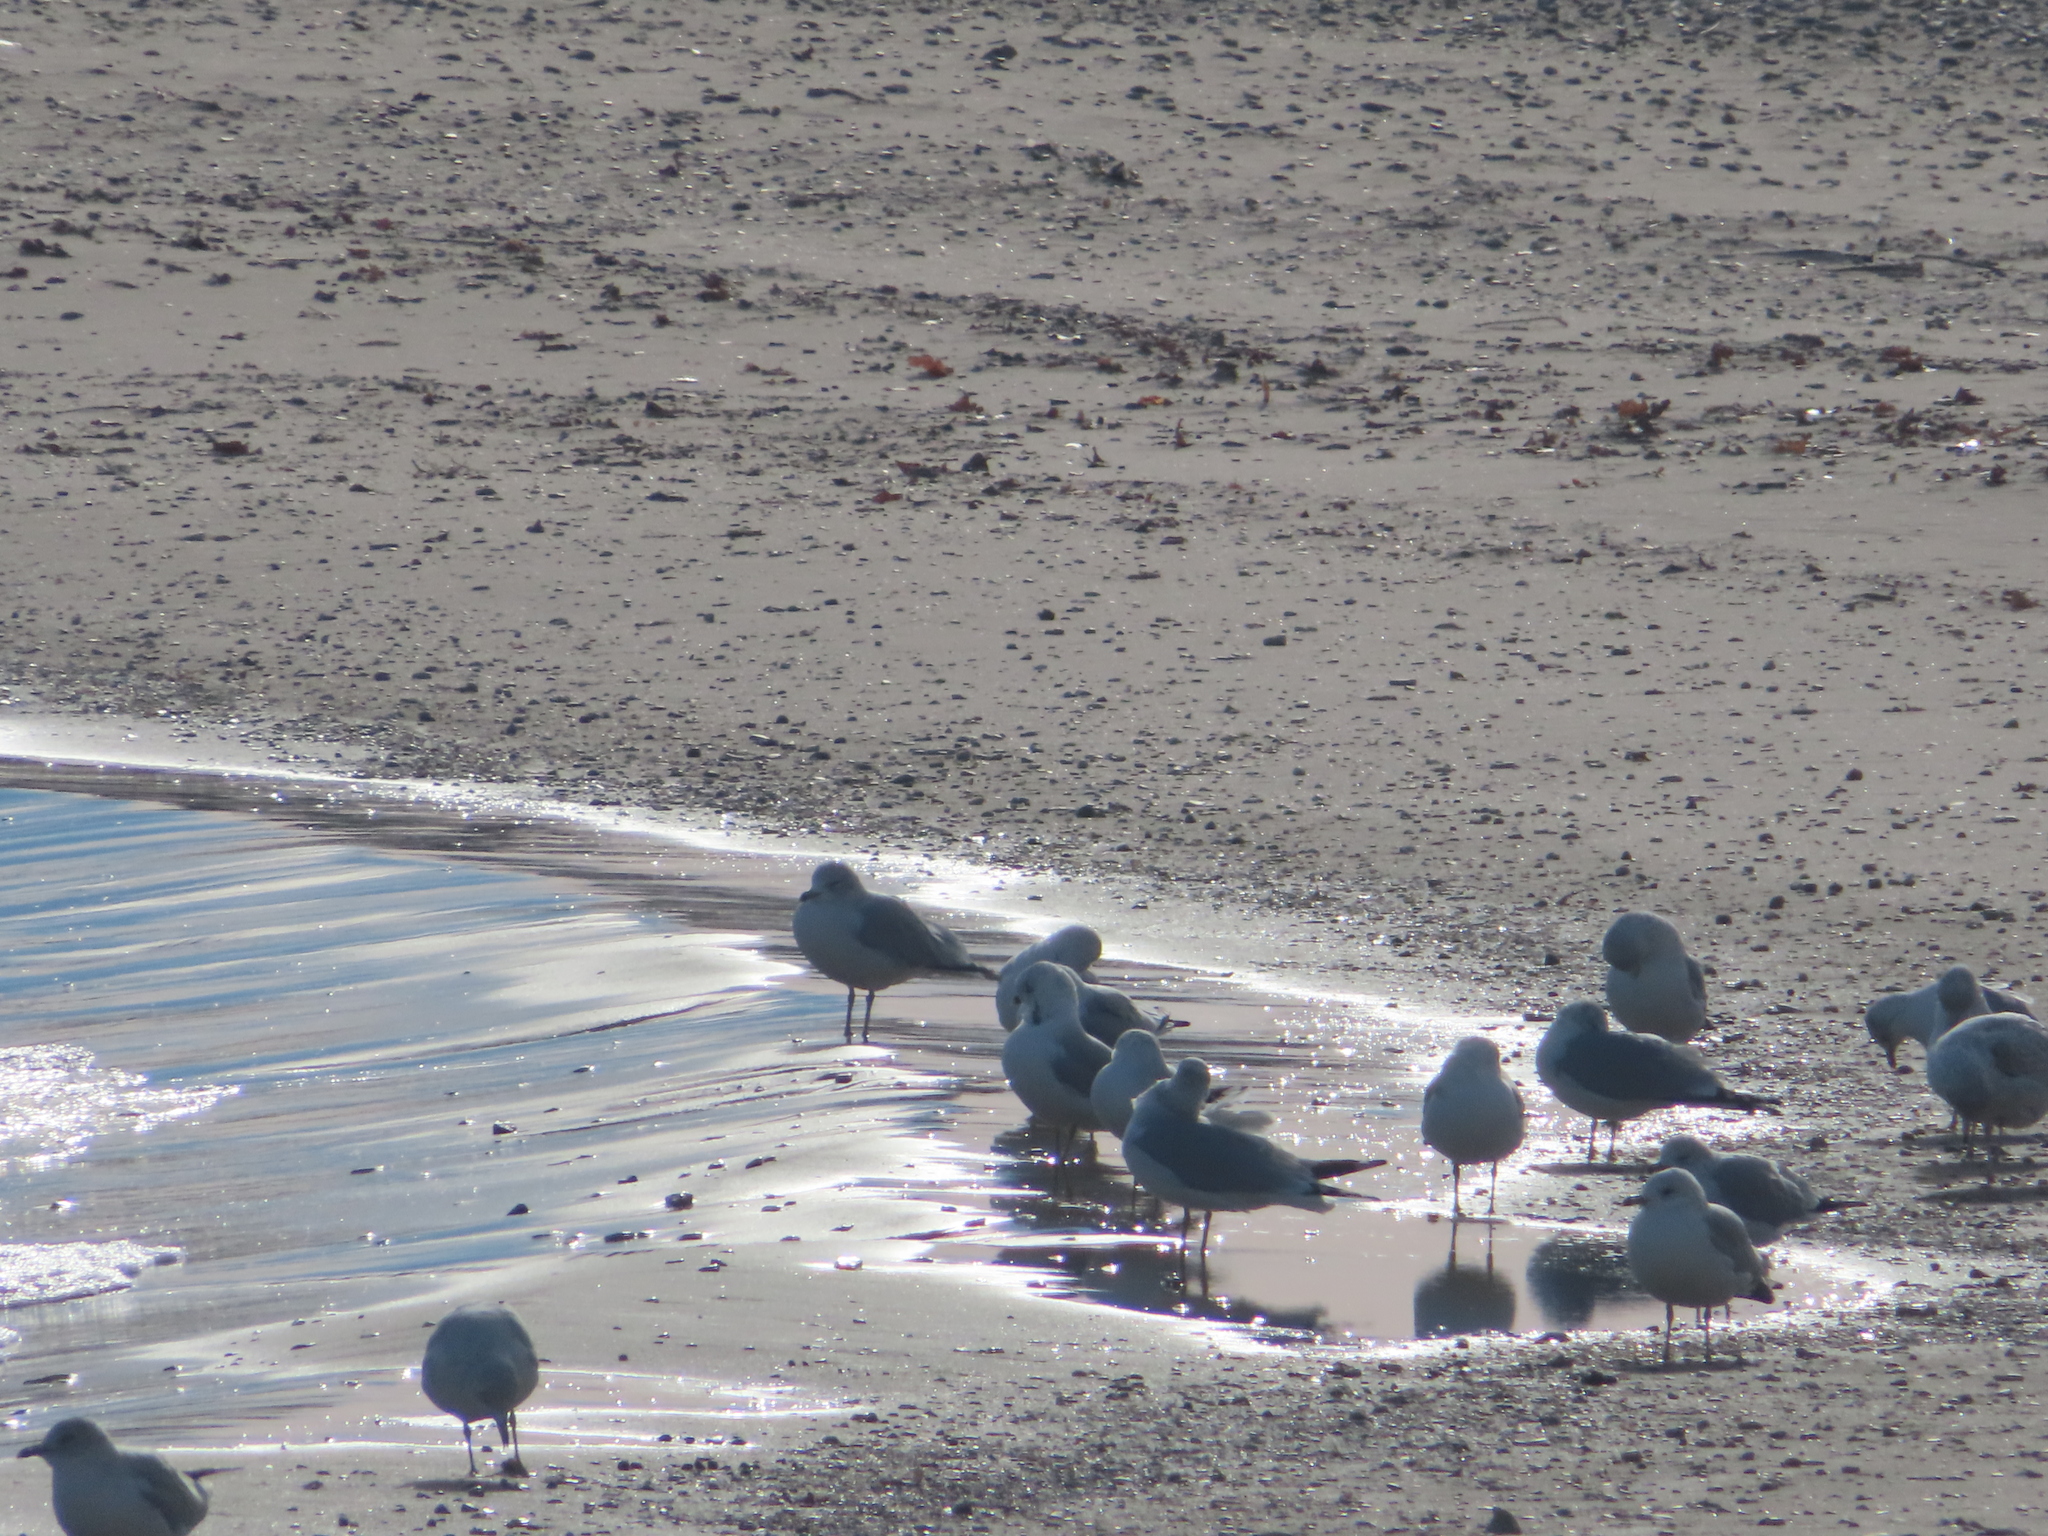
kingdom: Animalia
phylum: Chordata
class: Aves
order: Charadriiformes
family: Laridae
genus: Larus
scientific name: Larus delawarensis
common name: Ring-billed gull
